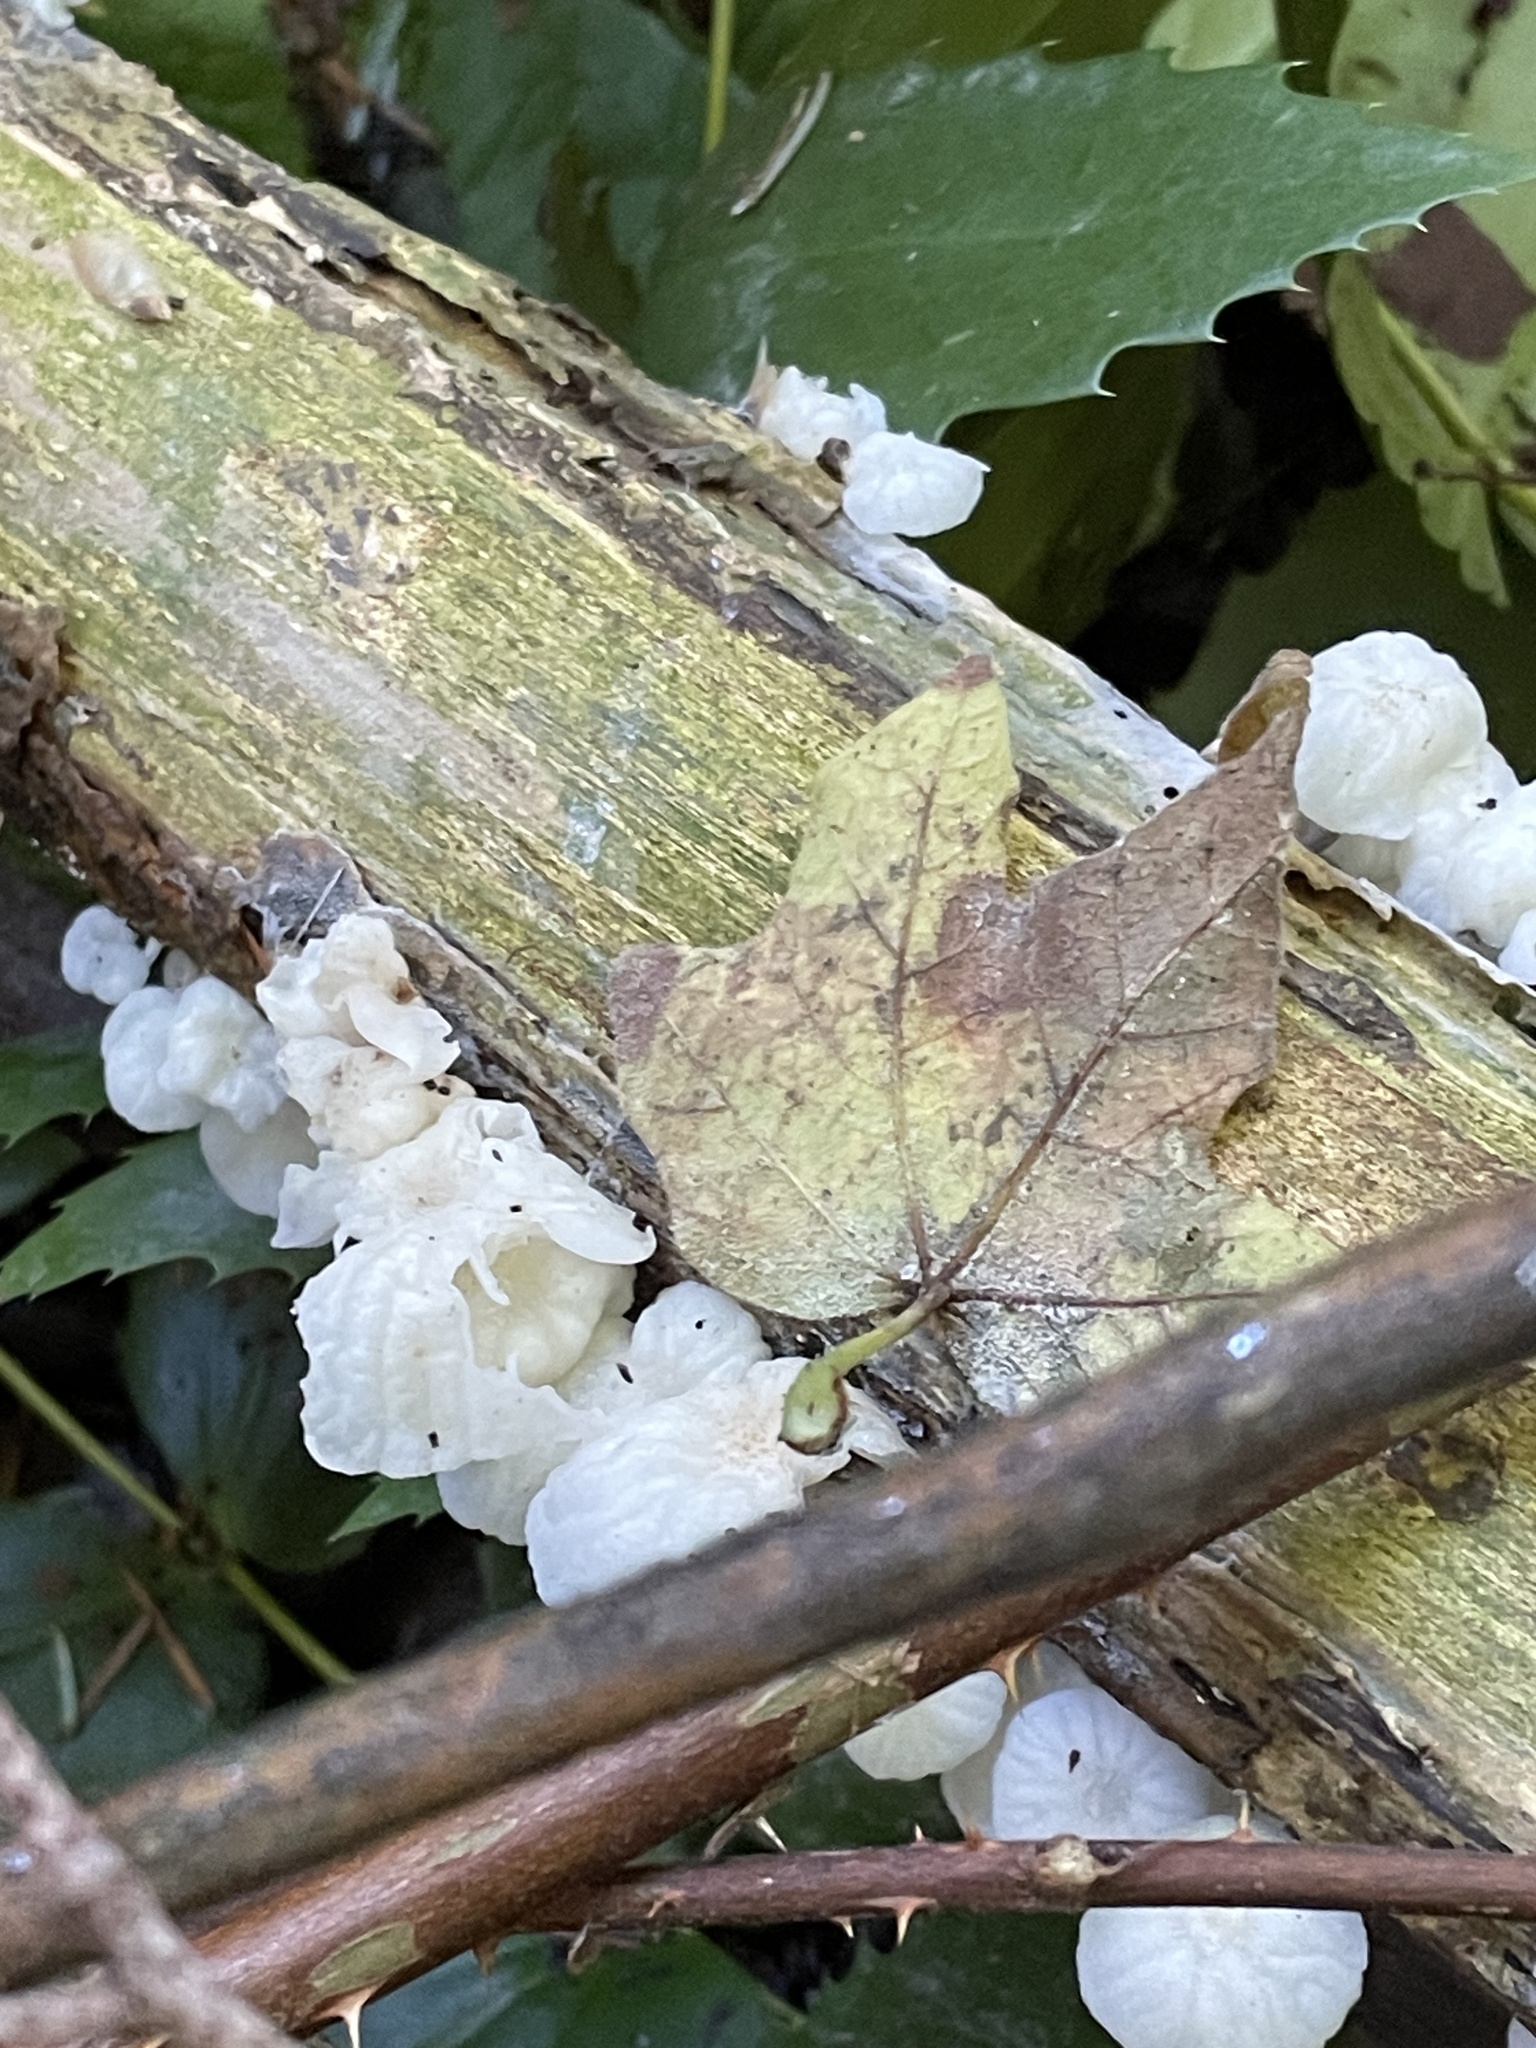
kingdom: Fungi
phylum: Basidiomycota
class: Agaricomycetes
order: Agaricales
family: Omphalotaceae
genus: Marasmiellus
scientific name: Marasmiellus candidus
